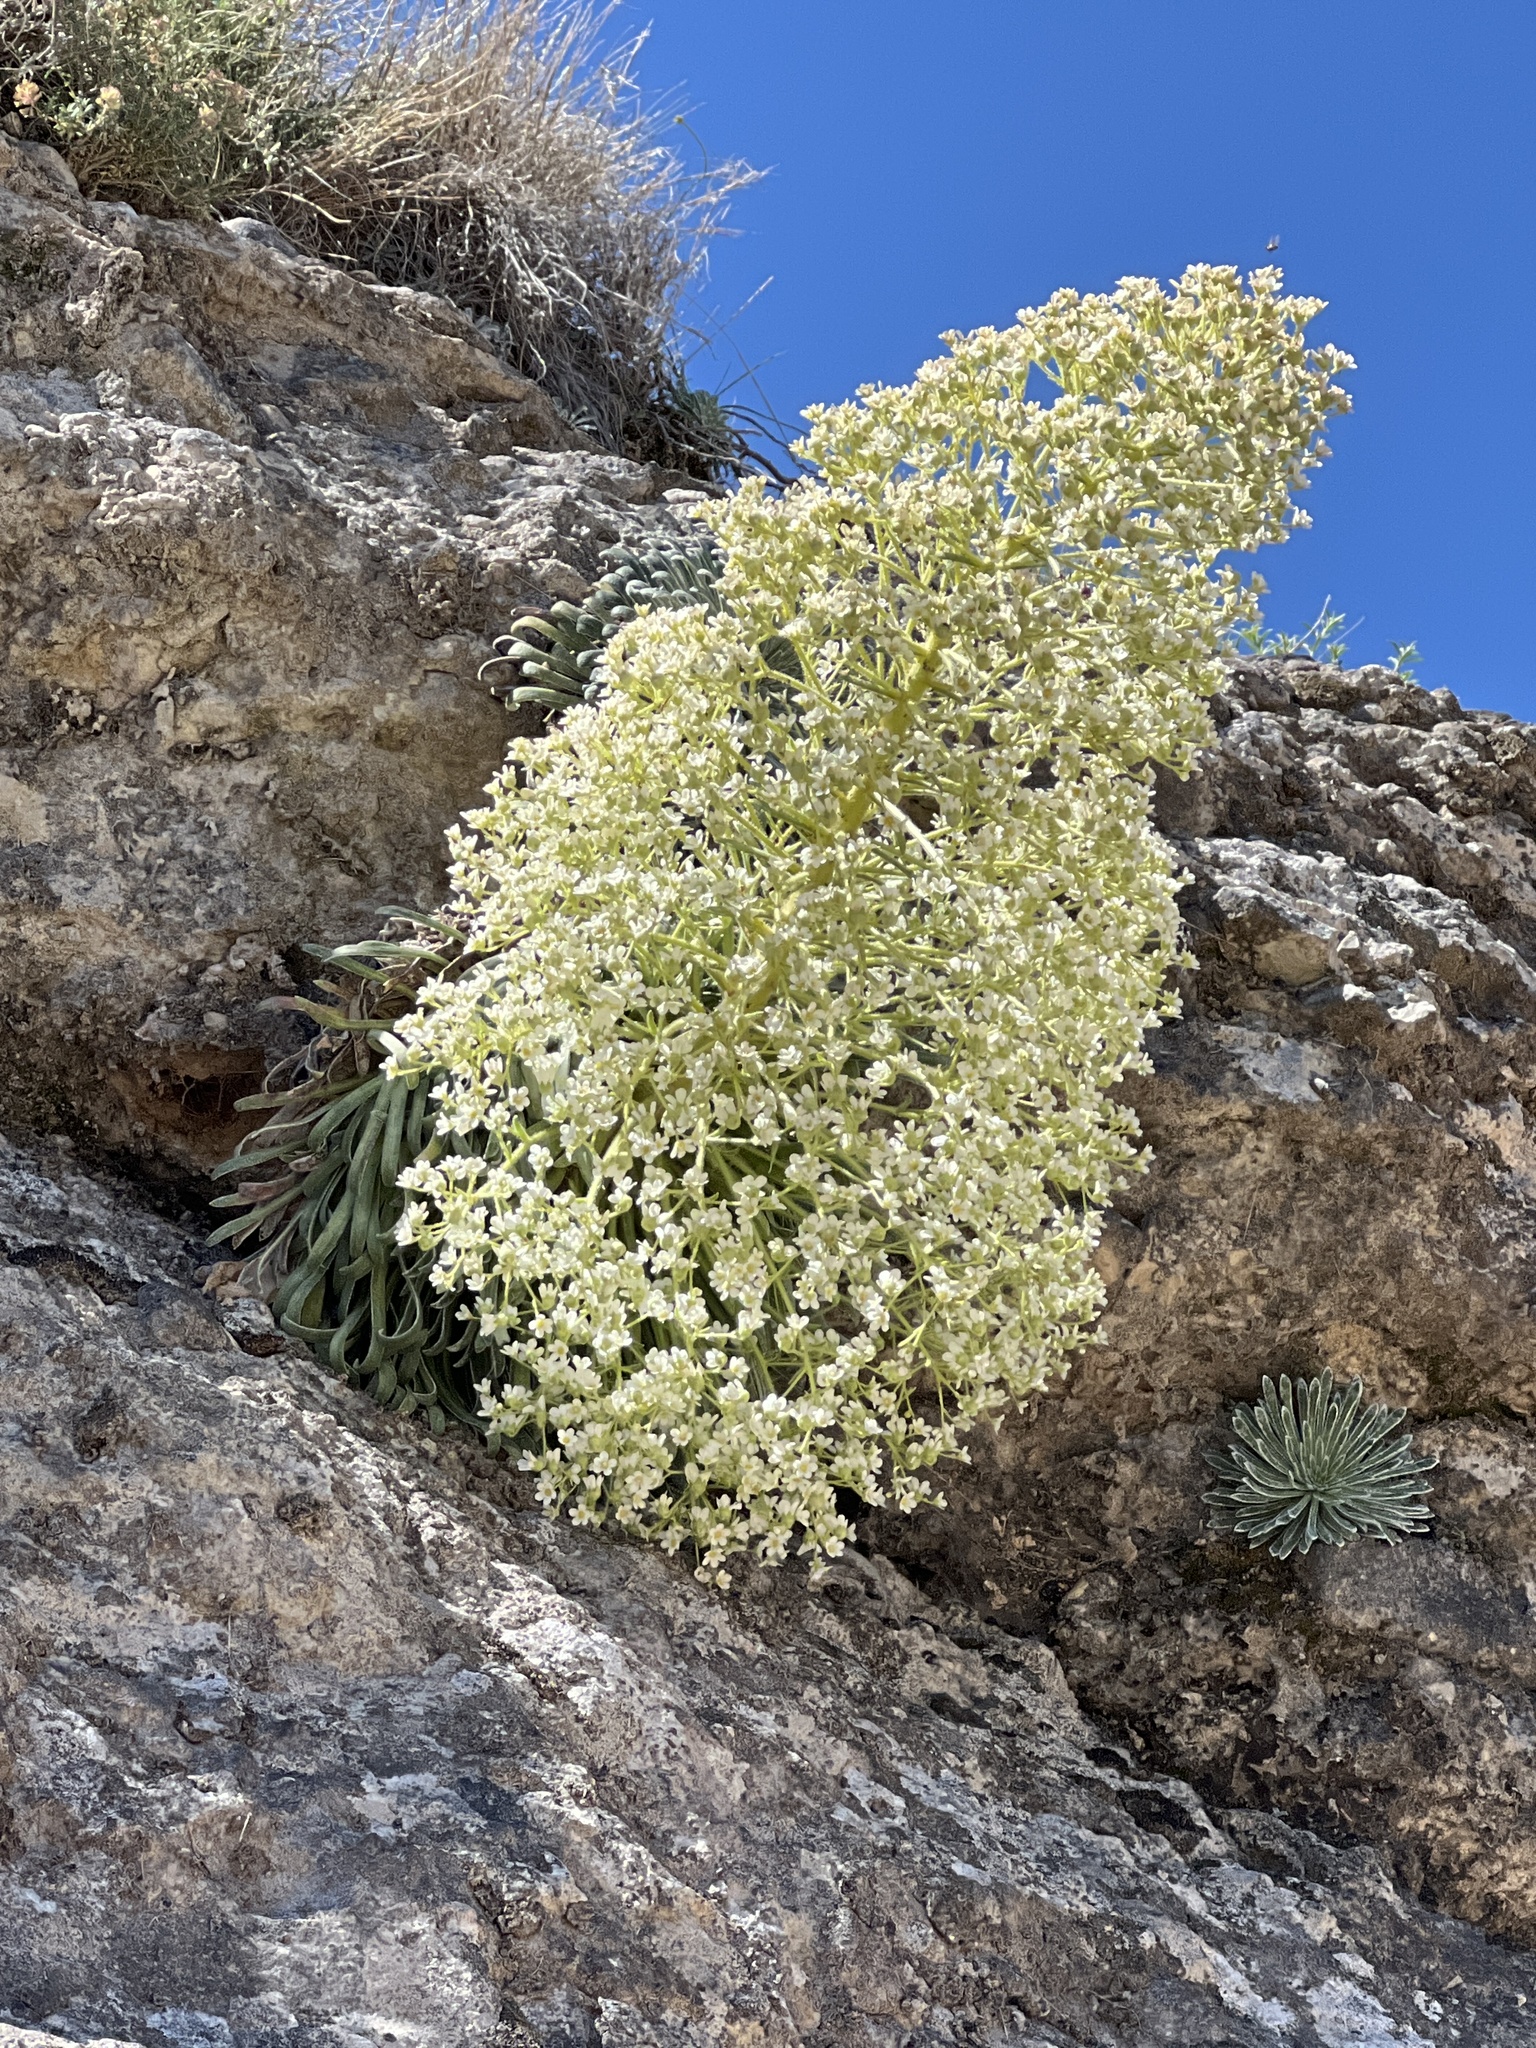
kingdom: Plantae
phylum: Tracheophyta
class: Magnoliopsida
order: Saxifragales
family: Saxifragaceae
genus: Saxifraga
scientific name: Saxifraga longifolia
